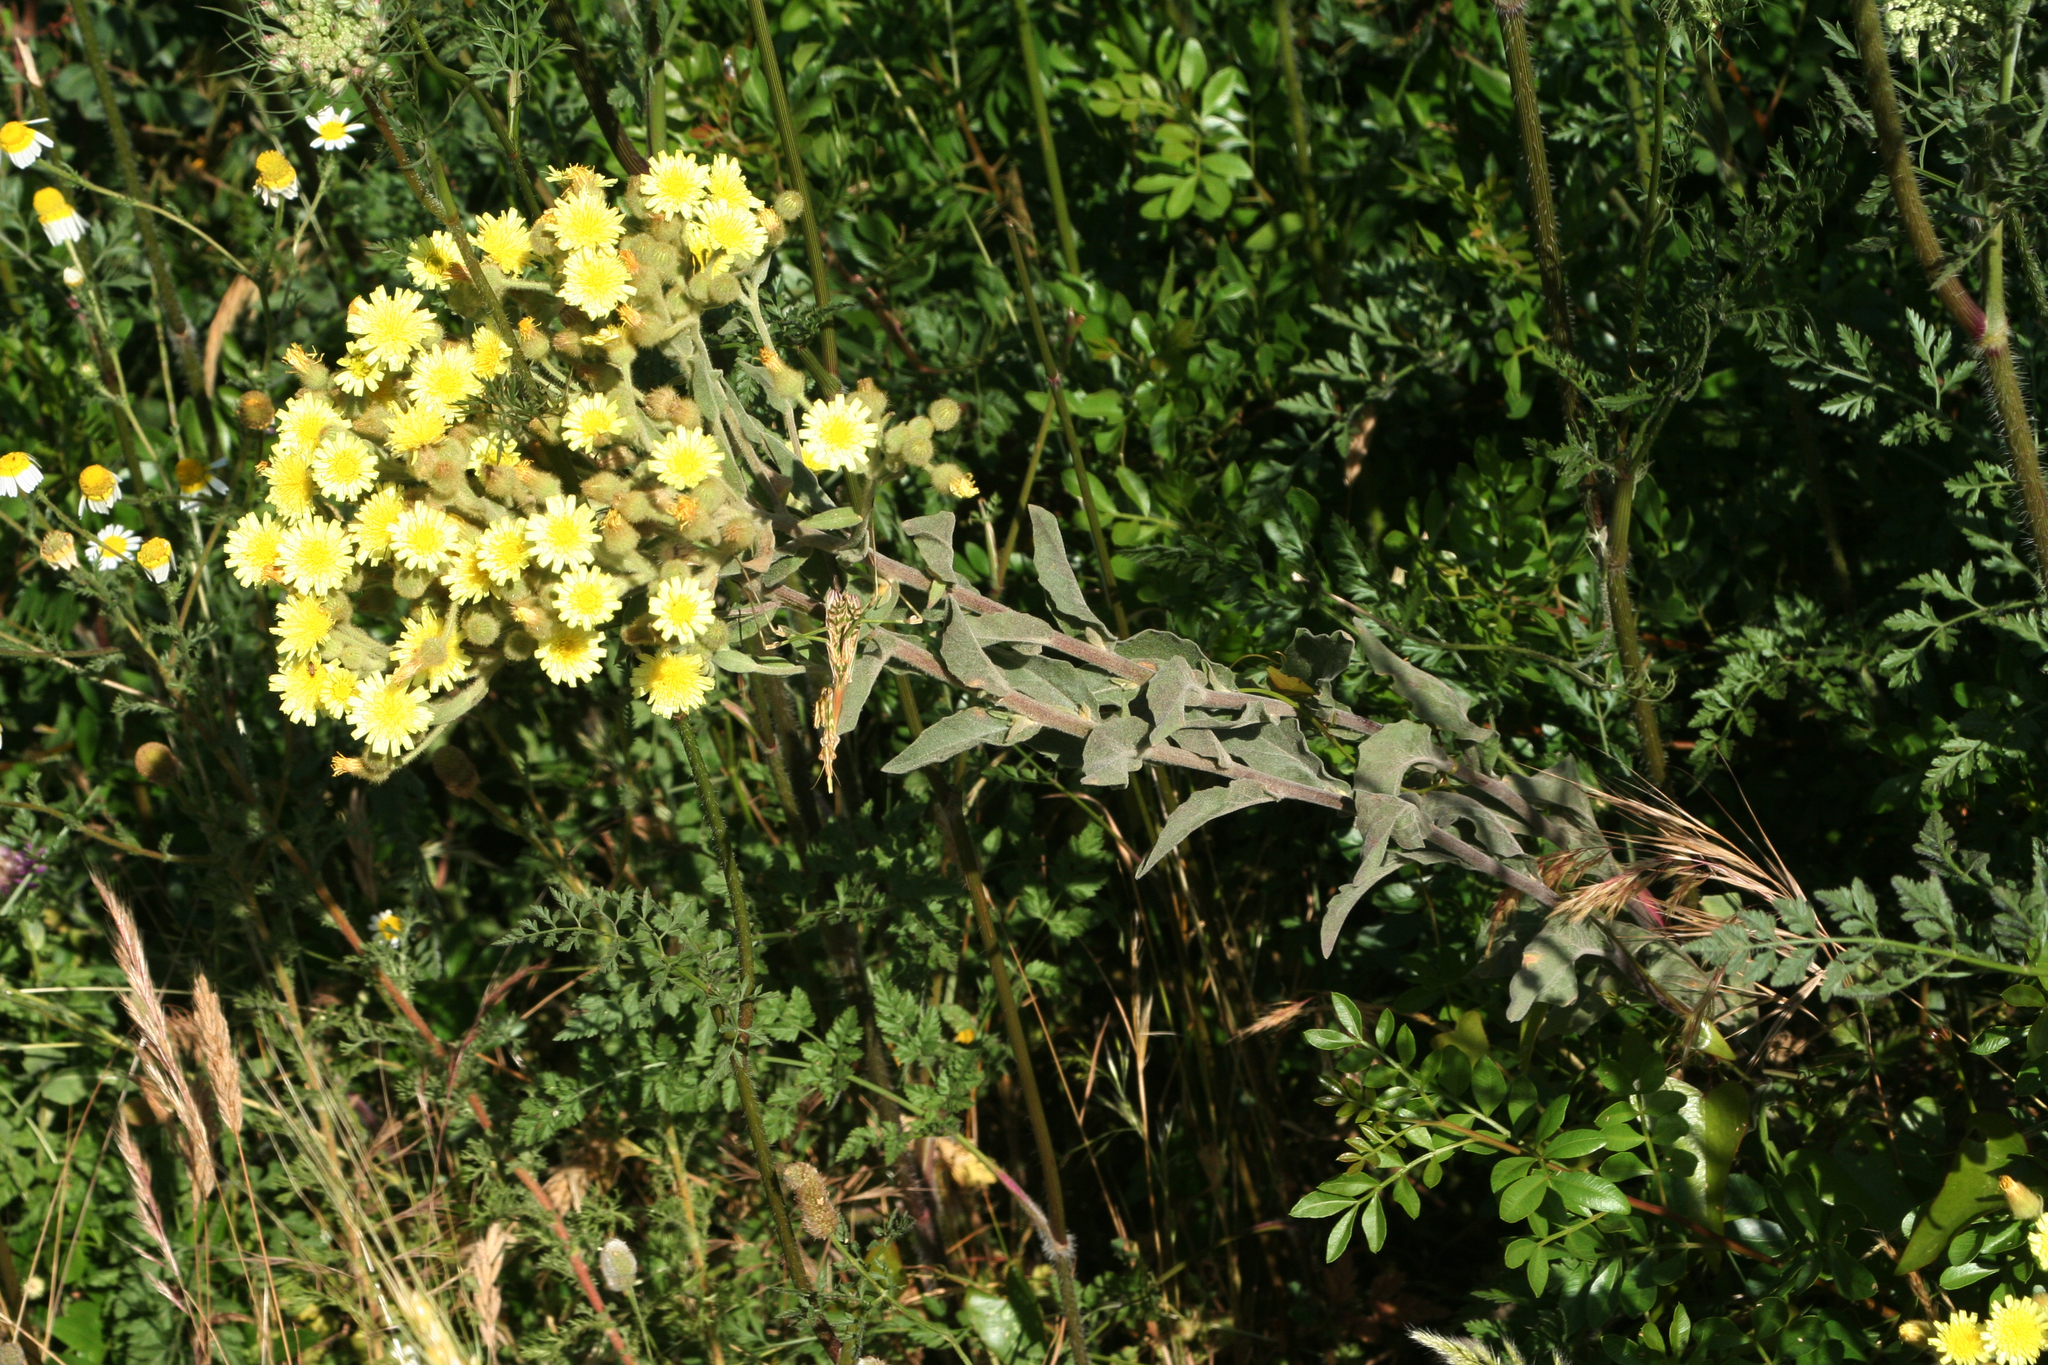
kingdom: Plantae
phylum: Tracheophyta
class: Magnoliopsida
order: Asterales
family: Asteraceae
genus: Andryala
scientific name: Andryala integrifolia
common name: Common andryala
